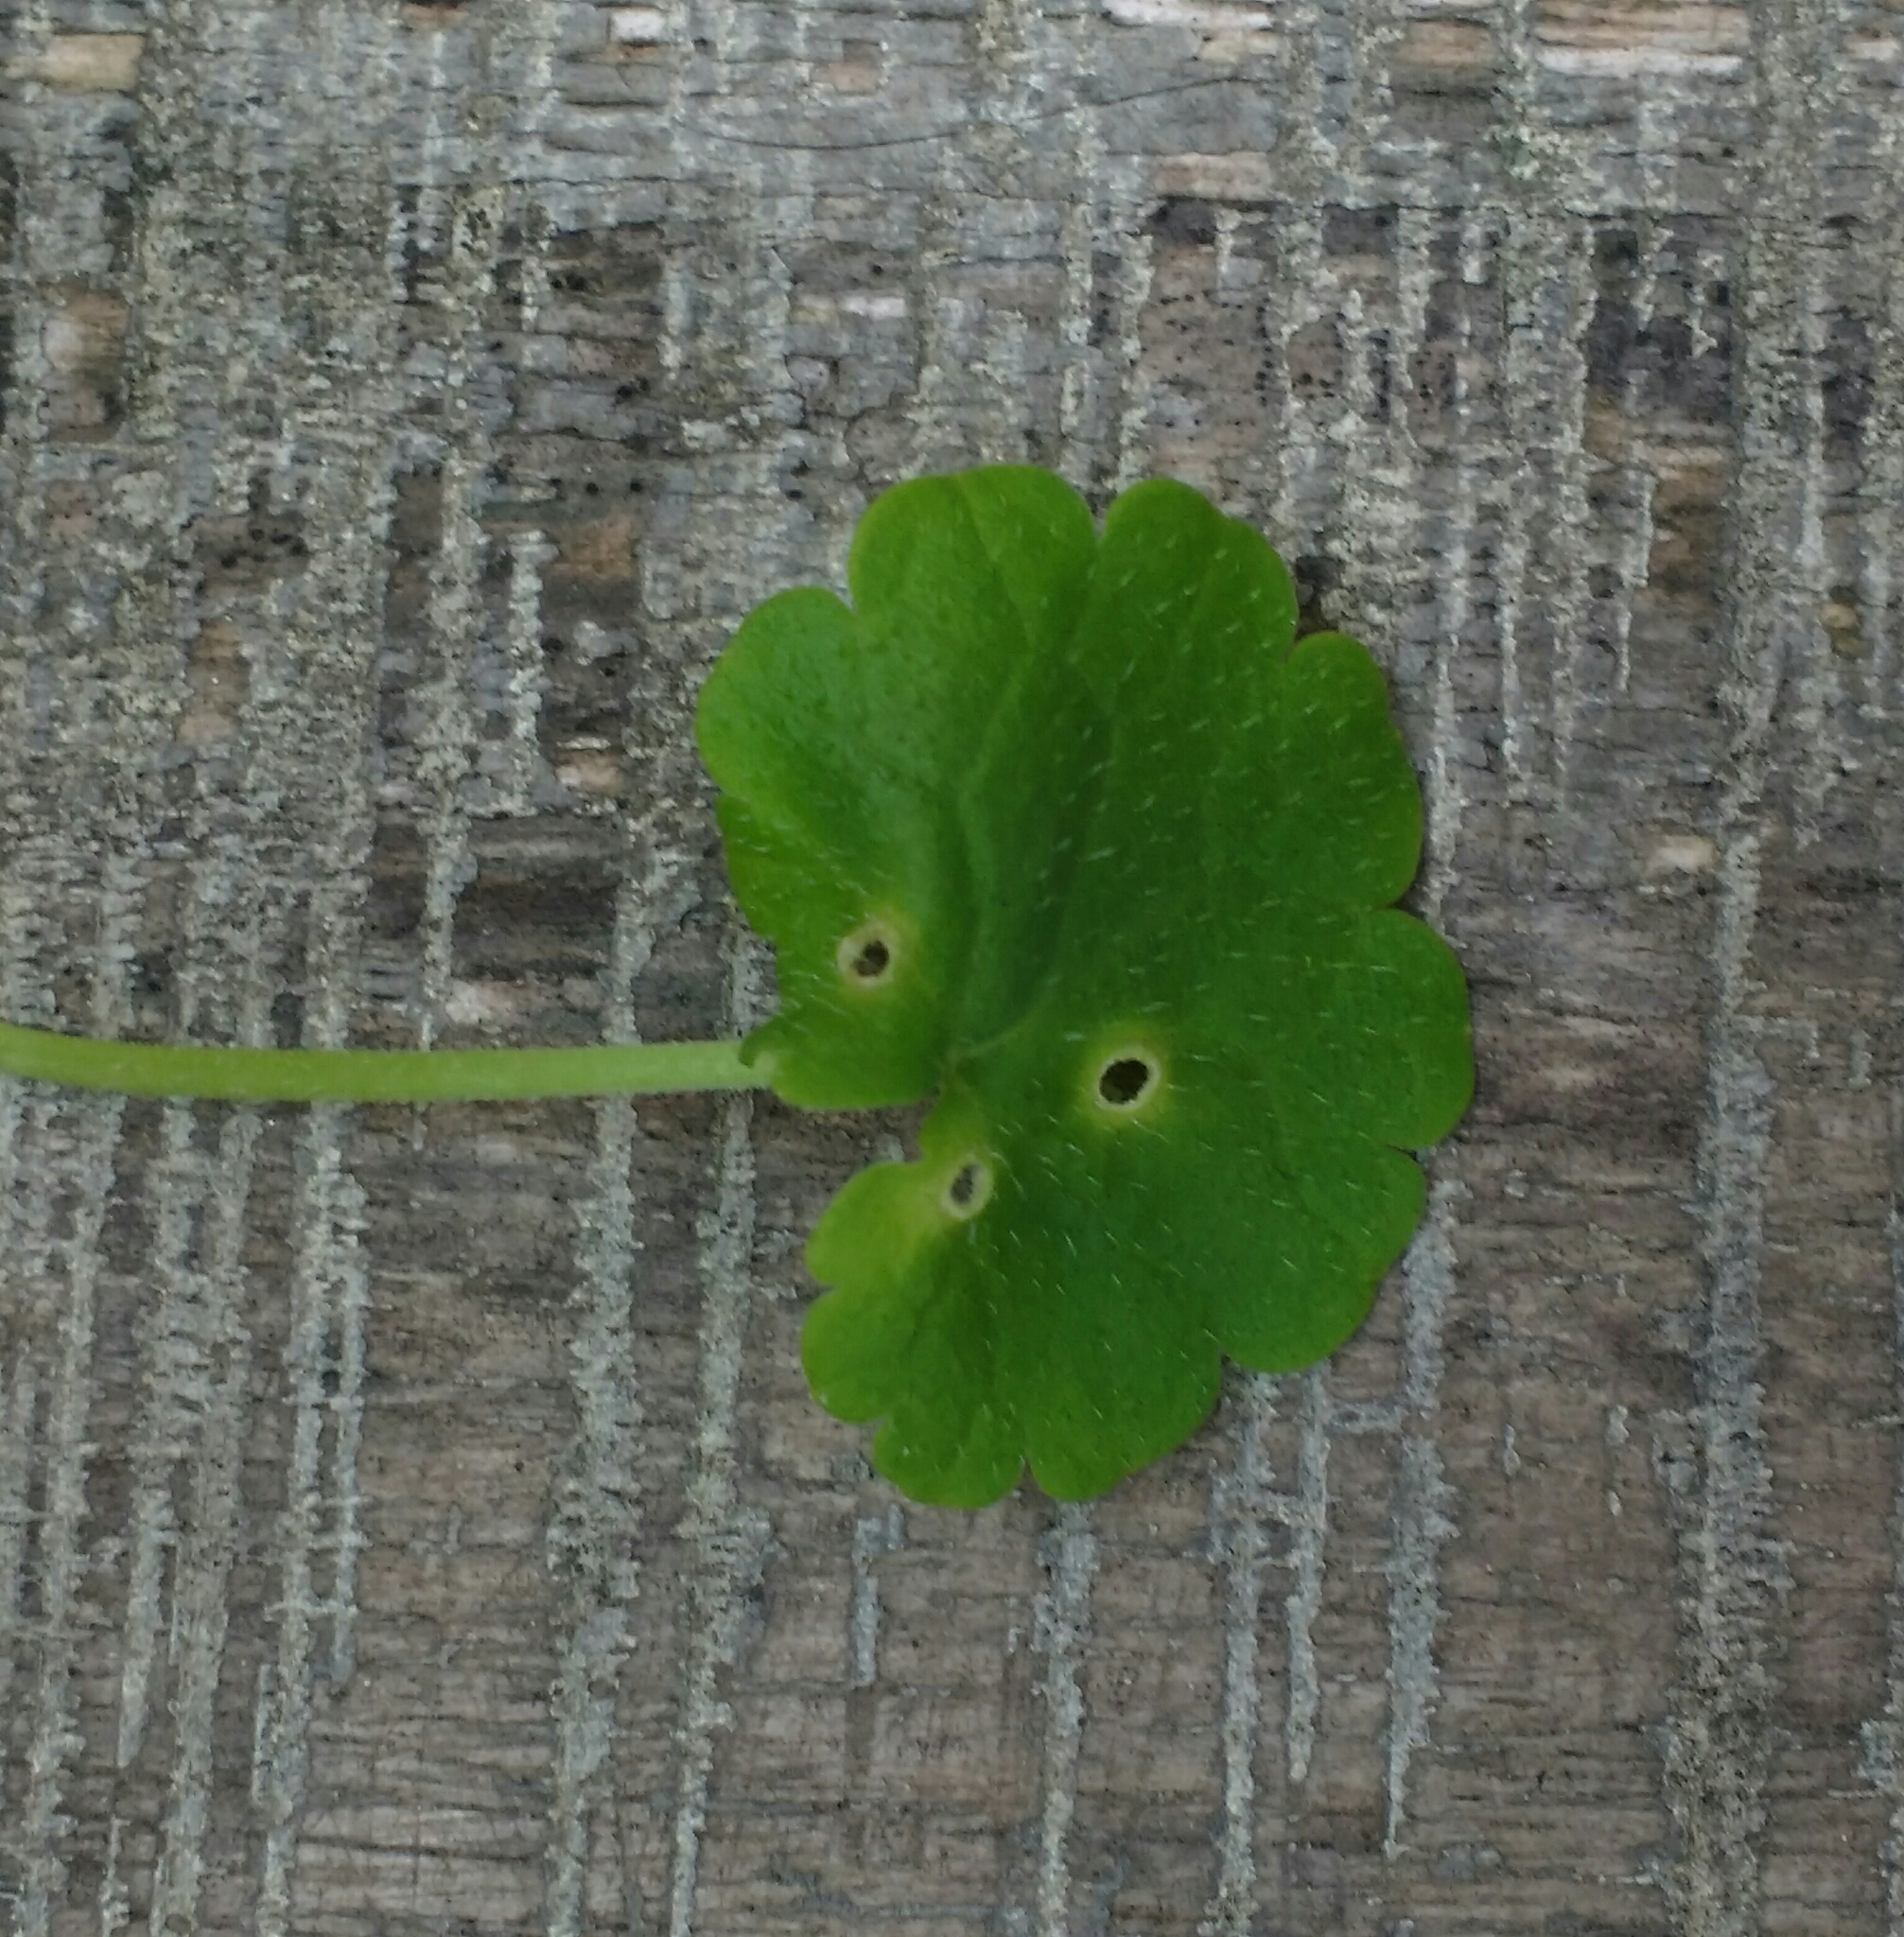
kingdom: Animalia
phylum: Arthropoda
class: Insecta
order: Diptera
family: Cecidomyiidae
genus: Rondaniola
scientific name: Rondaniola bursaria
